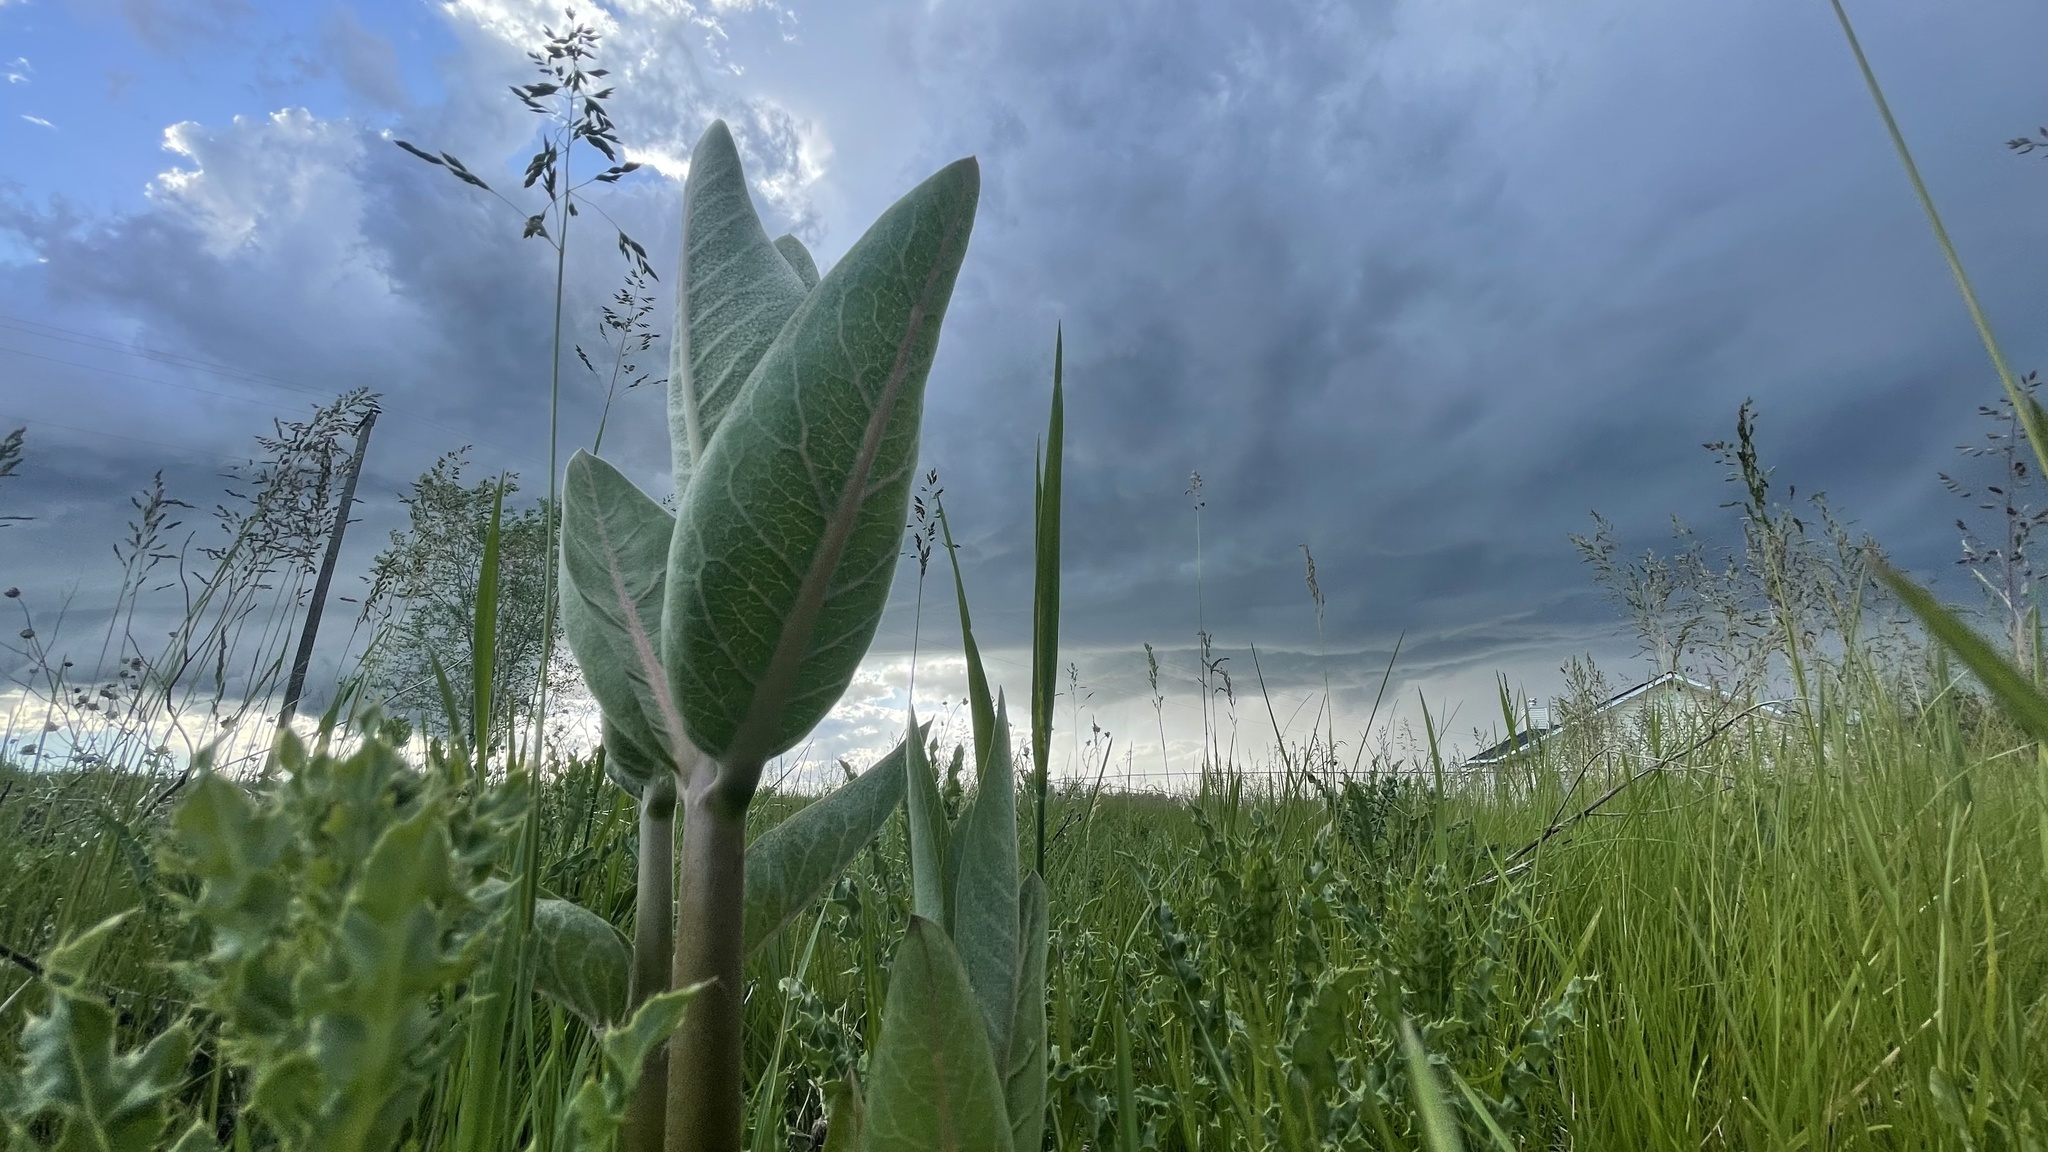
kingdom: Plantae
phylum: Tracheophyta
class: Magnoliopsida
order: Gentianales
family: Apocynaceae
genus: Asclepias
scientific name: Asclepias speciosa
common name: Showy milkweed
